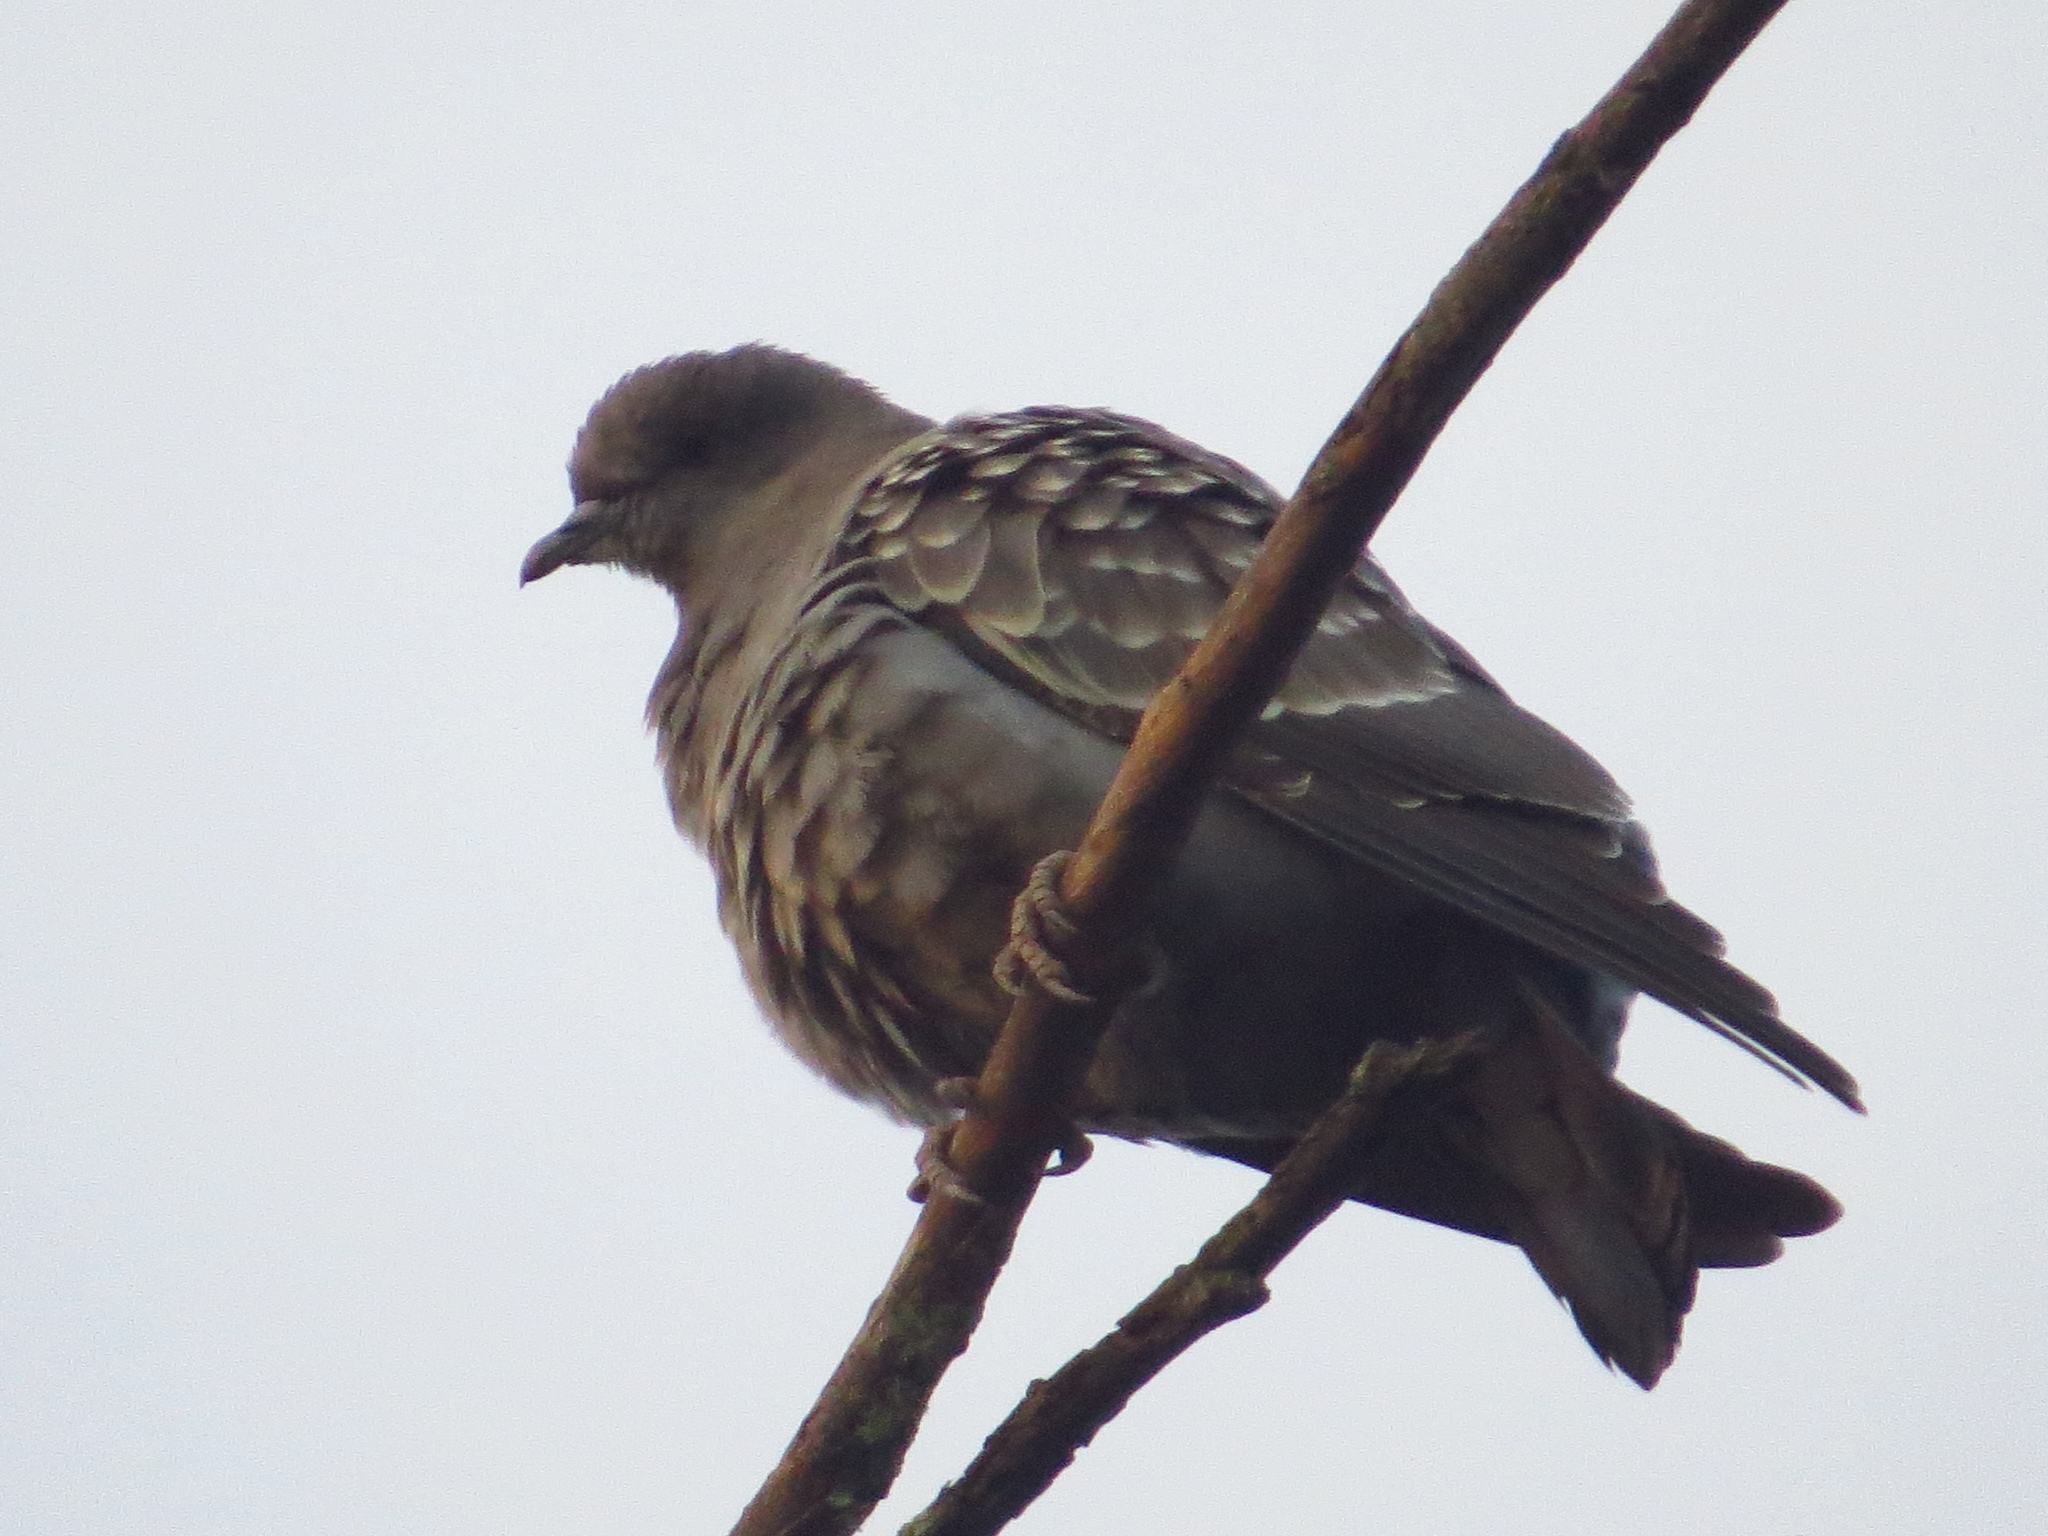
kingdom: Animalia
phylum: Chordata
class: Aves
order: Columbiformes
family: Columbidae
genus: Patagioenas
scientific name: Patagioenas maculosa
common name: Spot-winged pigeon
